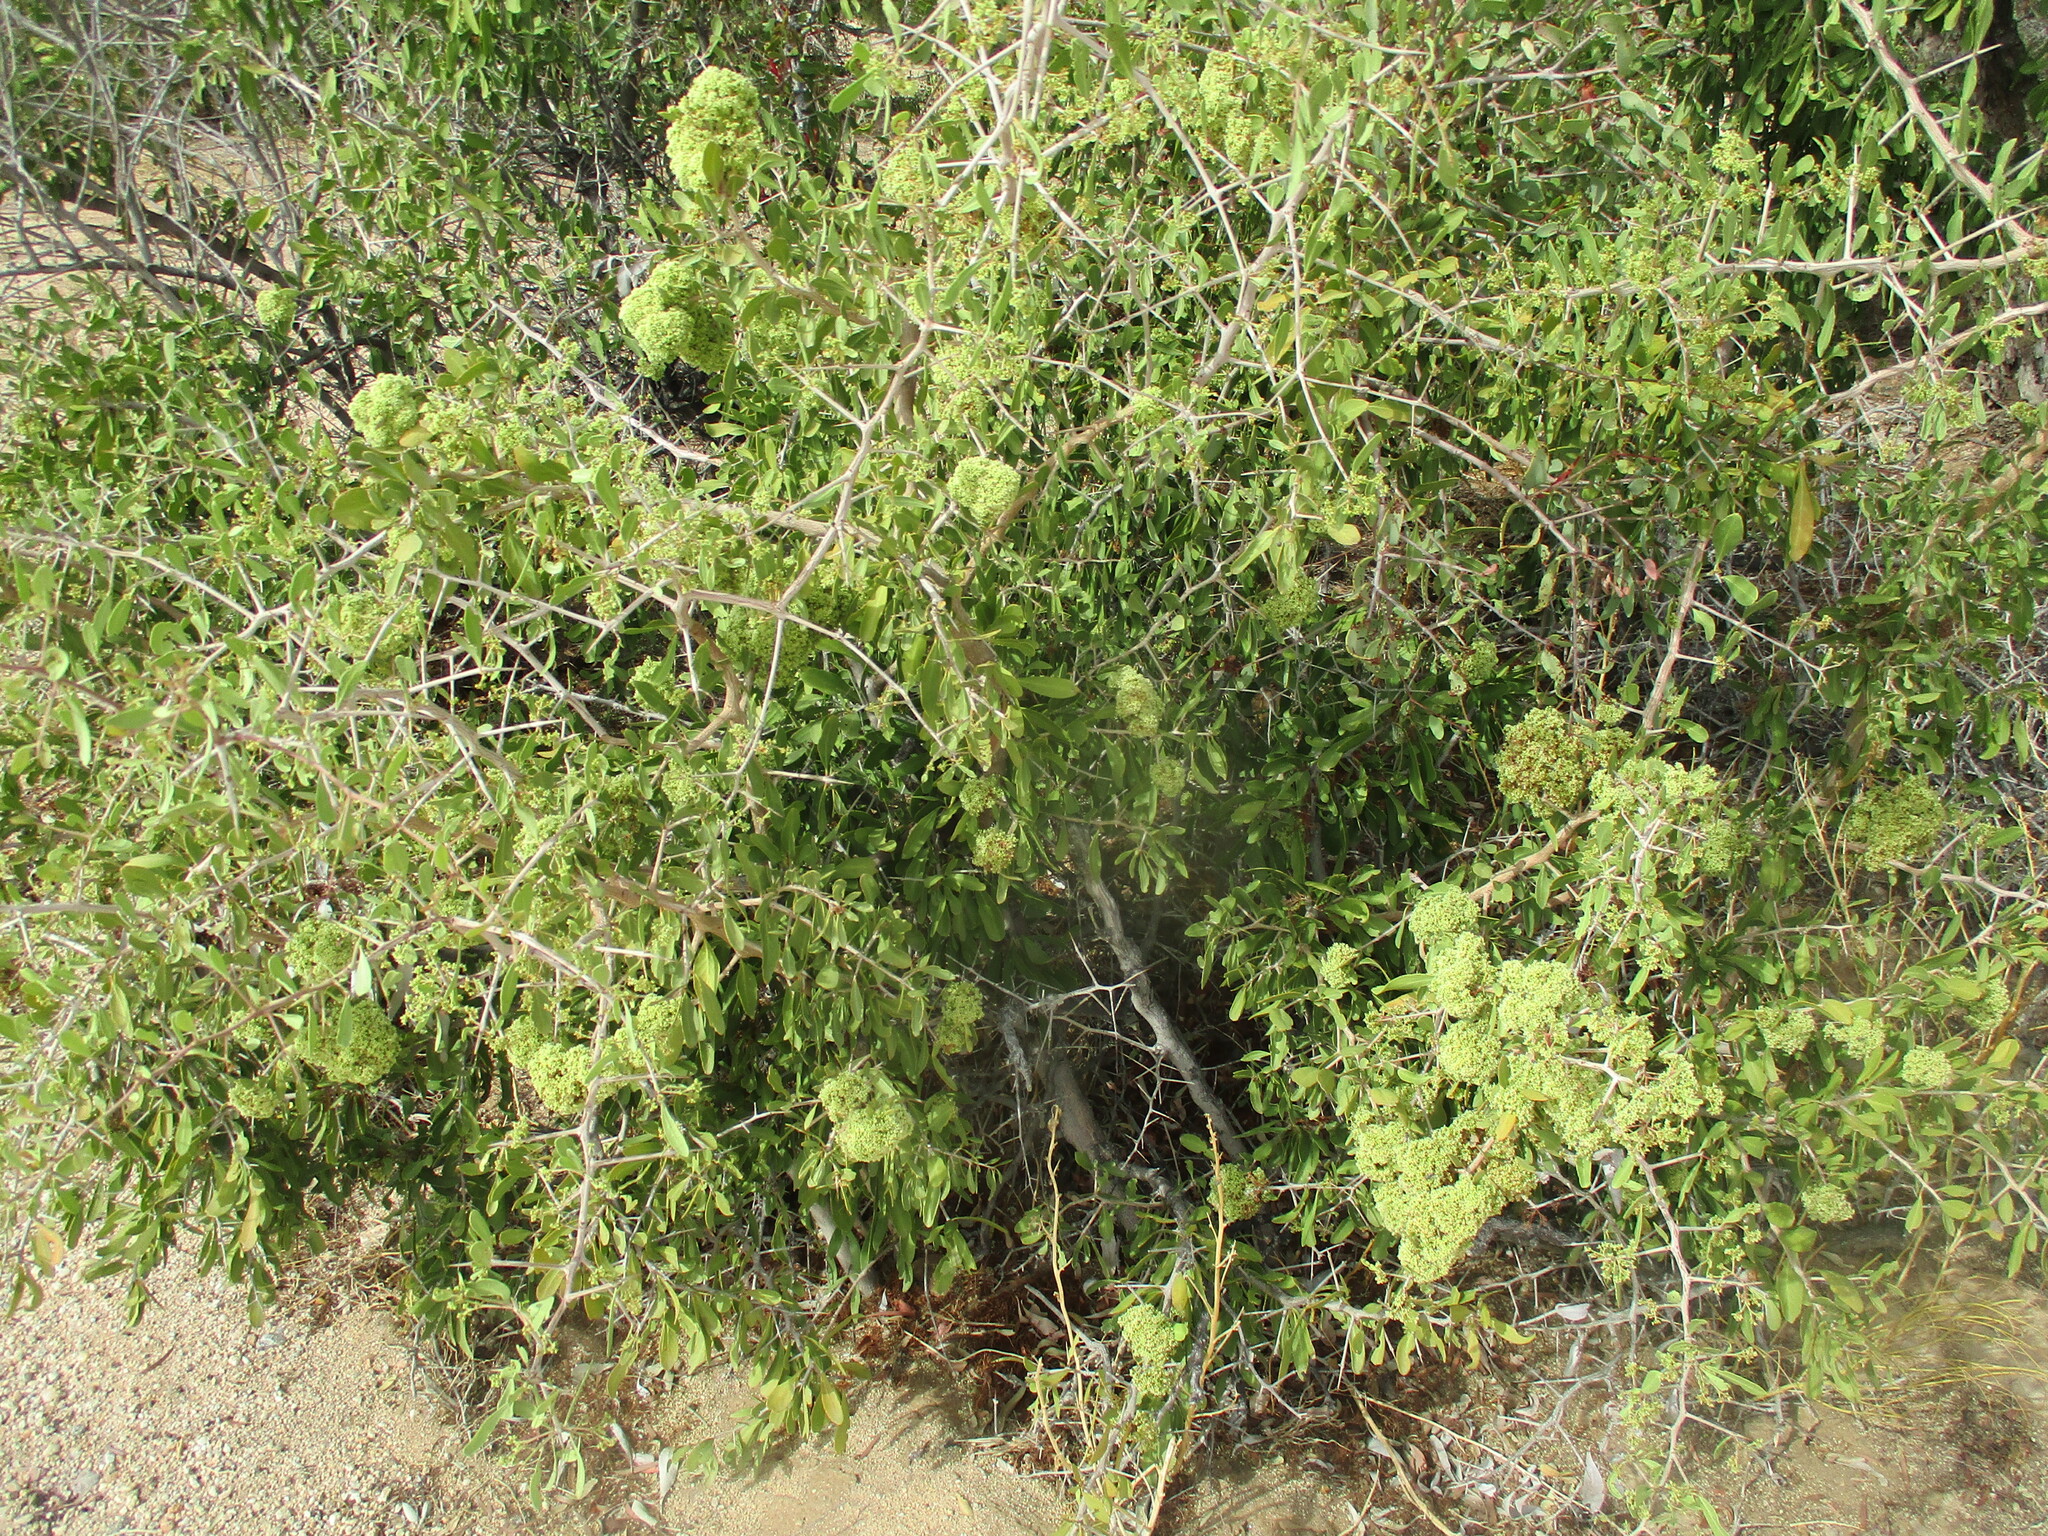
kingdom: Plantae
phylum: Tracheophyta
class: Magnoliopsida
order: Celastrales
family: Celastraceae
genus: Gymnosporia
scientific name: Gymnosporia senegalensis
